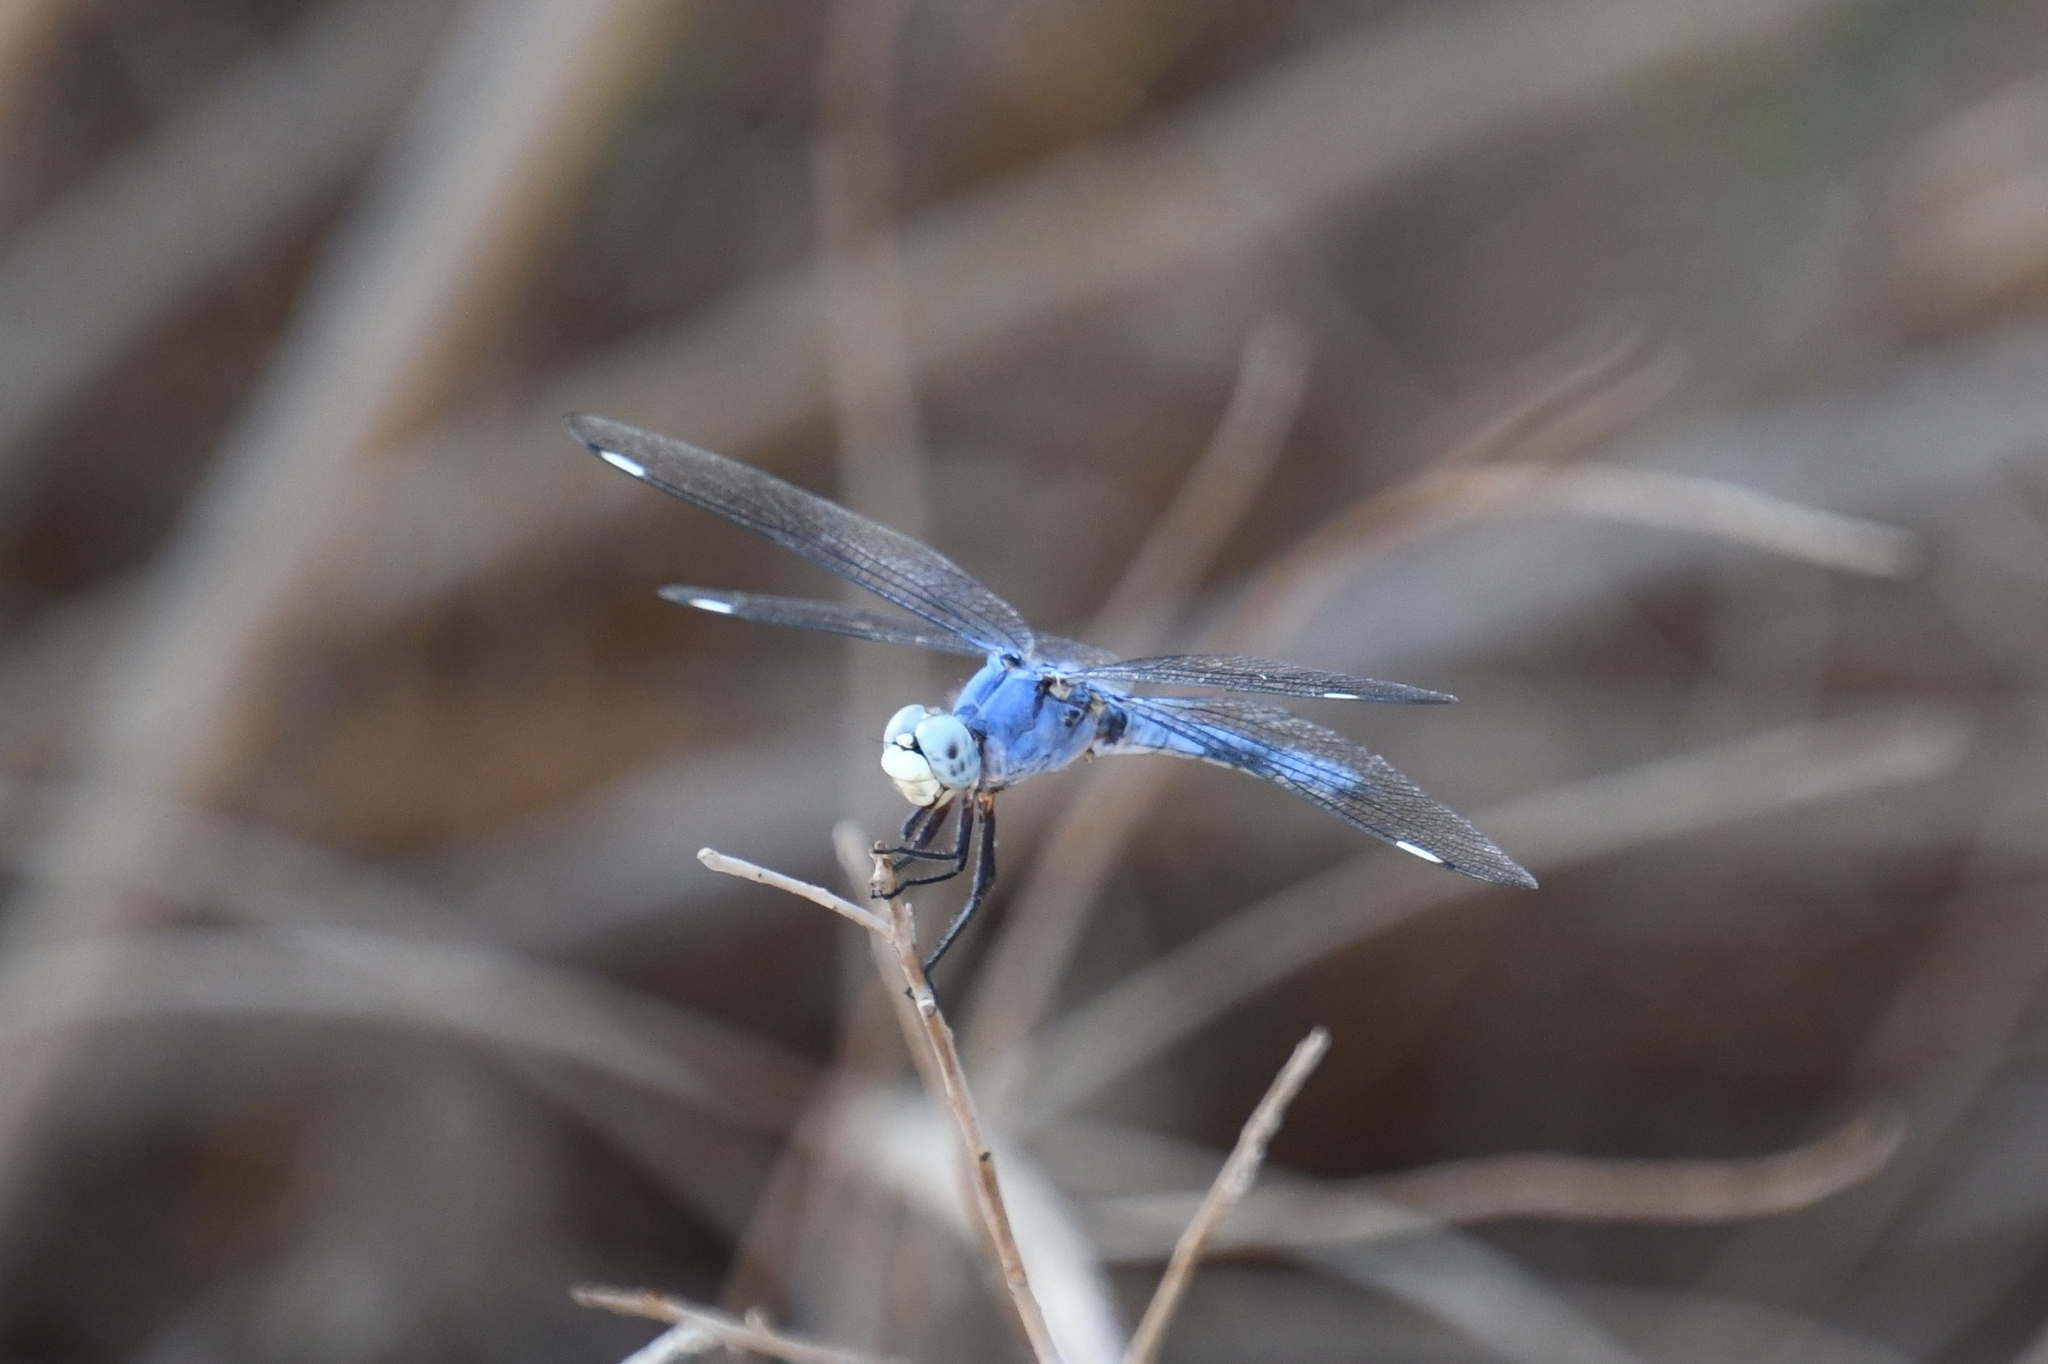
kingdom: Animalia
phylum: Arthropoda
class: Insecta
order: Odonata
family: Libellulidae
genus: Libellula
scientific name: Libellula comanche
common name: Comanche skimmer
